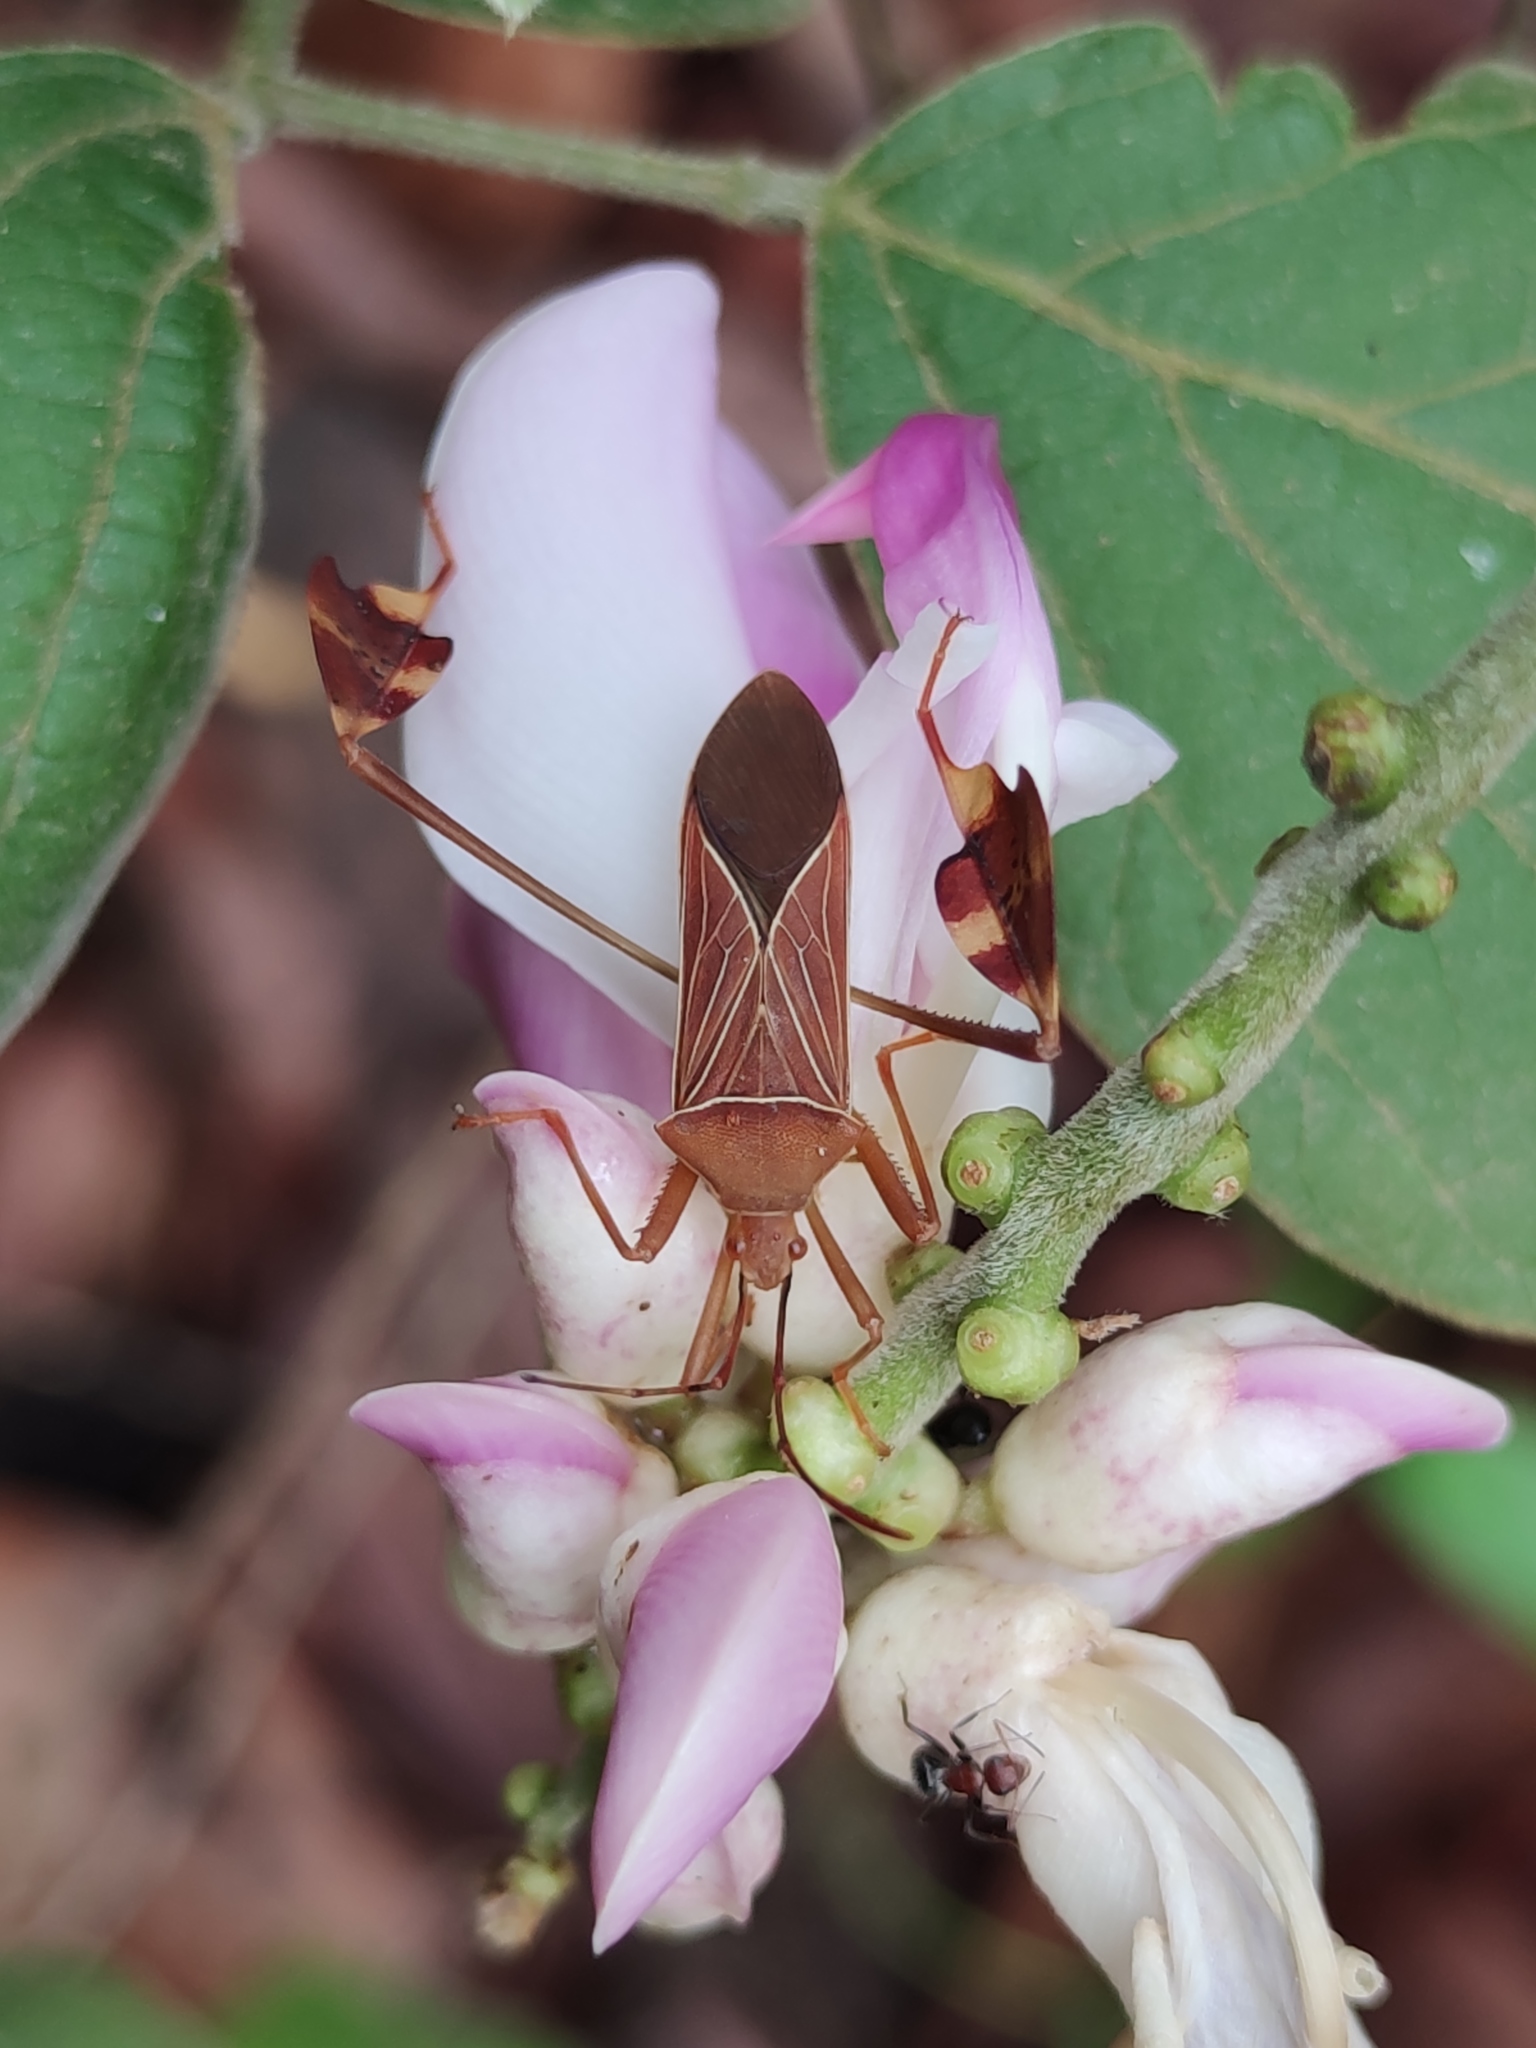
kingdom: Animalia
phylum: Arthropoda
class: Insecta
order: Hemiptera
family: Coreidae
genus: Bitta
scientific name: Bitta
